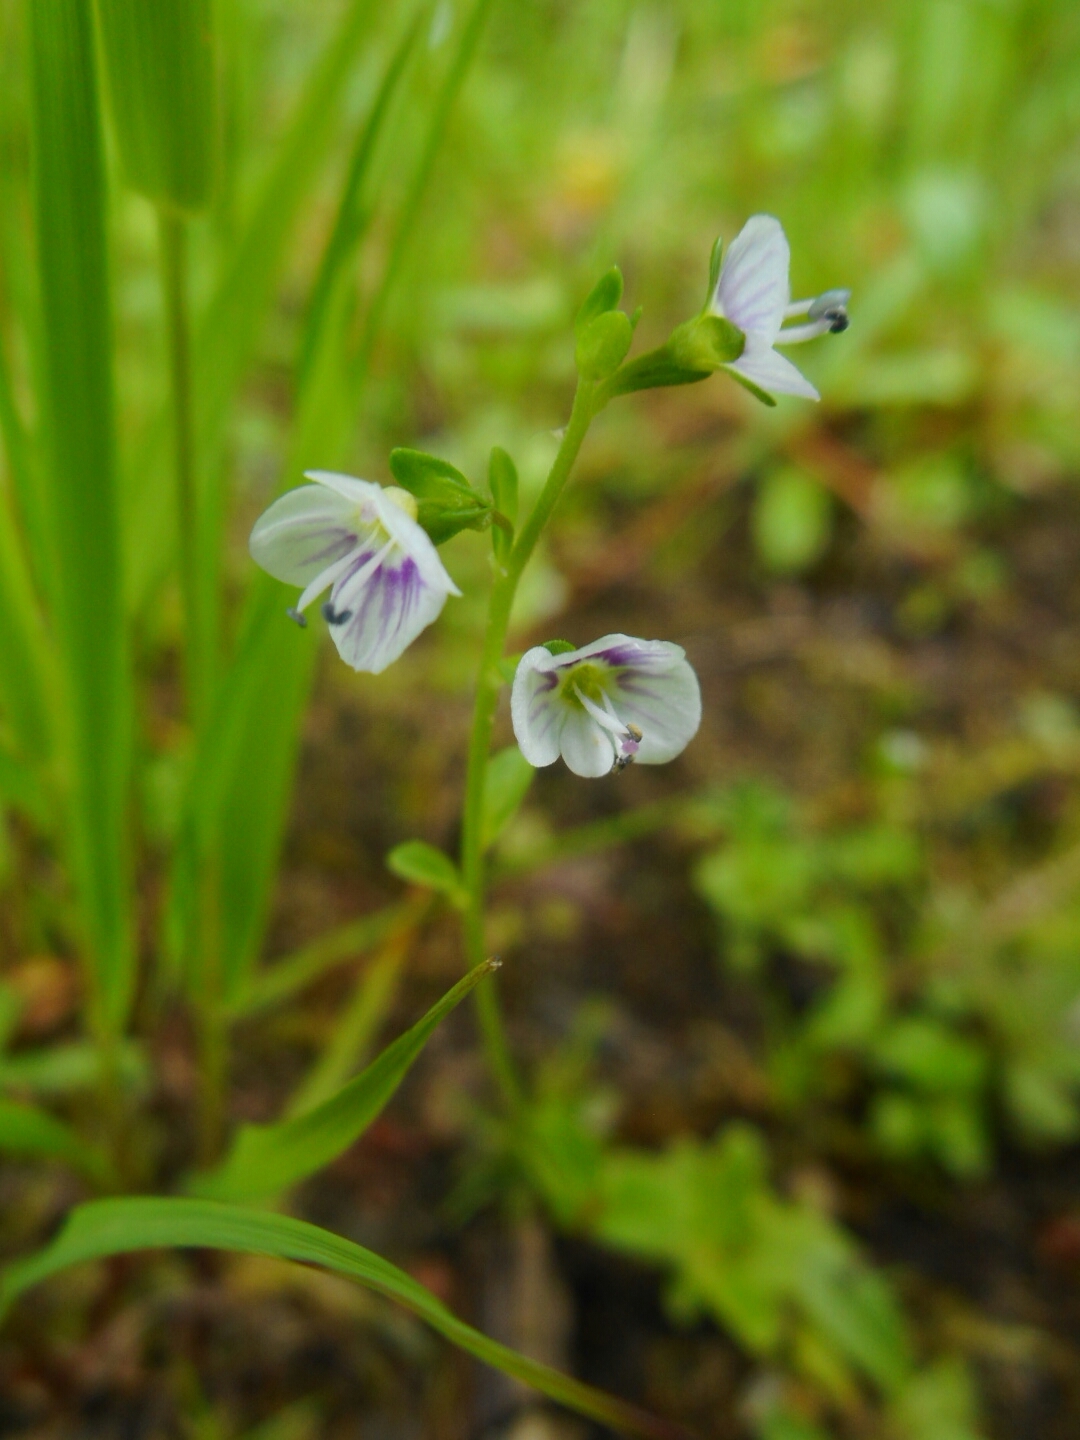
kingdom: Plantae
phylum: Tracheophyta
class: Magnoliopsida
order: Lamiales
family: Plantaginaceae
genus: Veronica
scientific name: Veronica serpyllifolia
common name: Thyme-leaved speedwell
